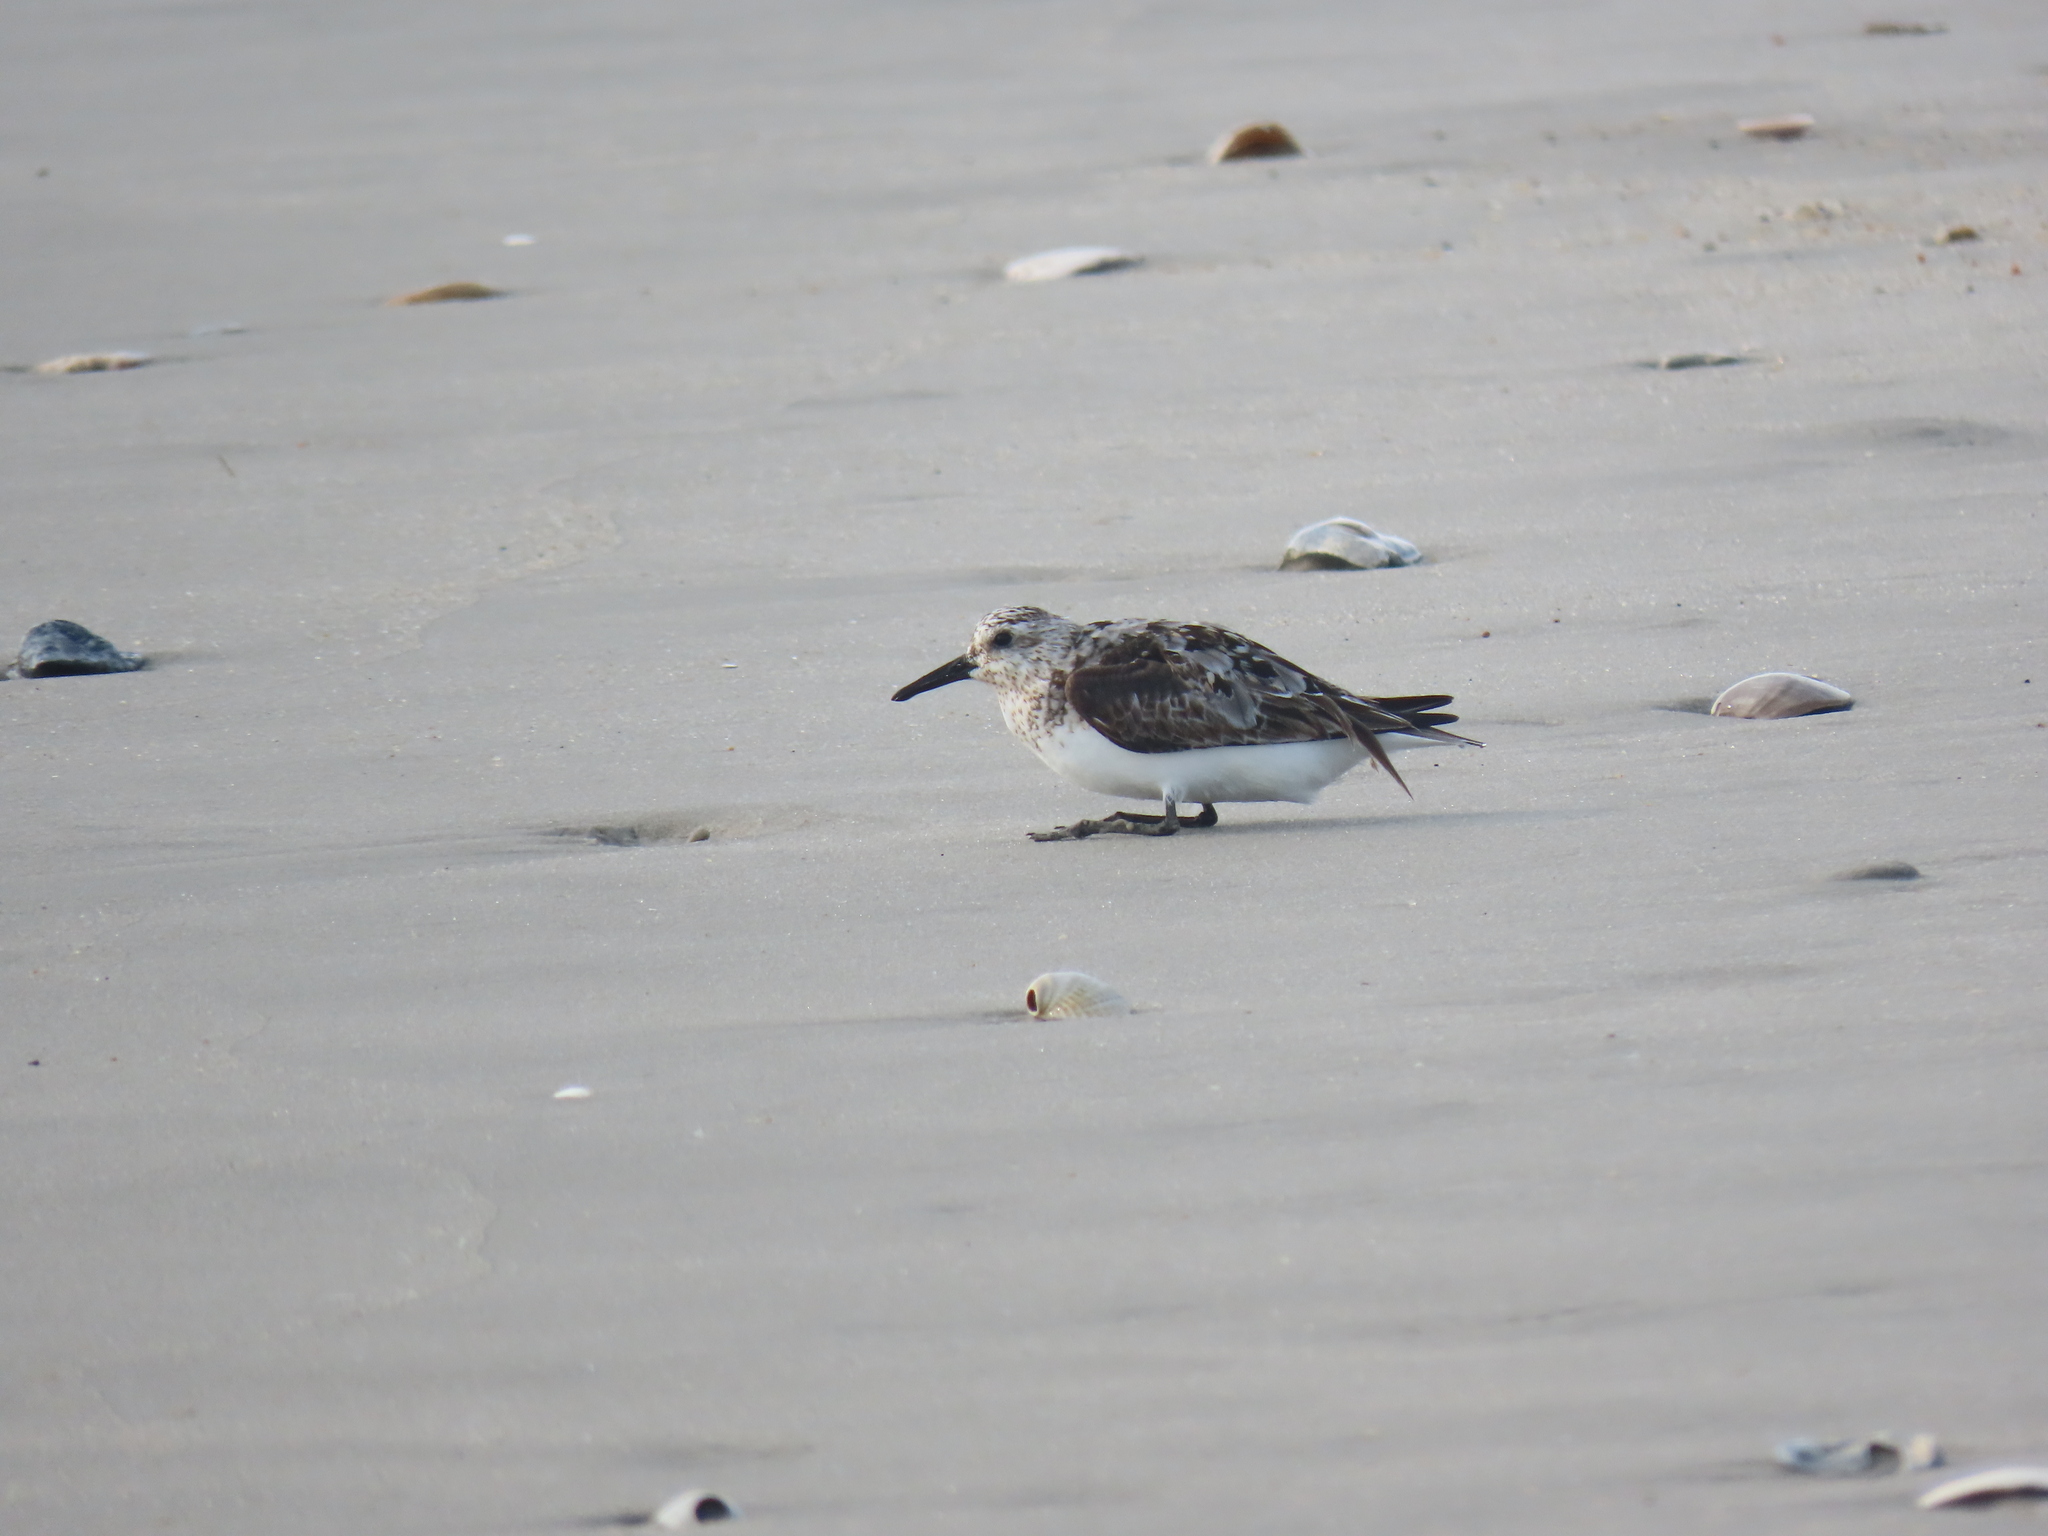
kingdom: Animalia
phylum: Chordata
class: Aves
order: Charadriiformes
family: Scolopacidae
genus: Calidris
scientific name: Calidris alba
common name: Sanderling
